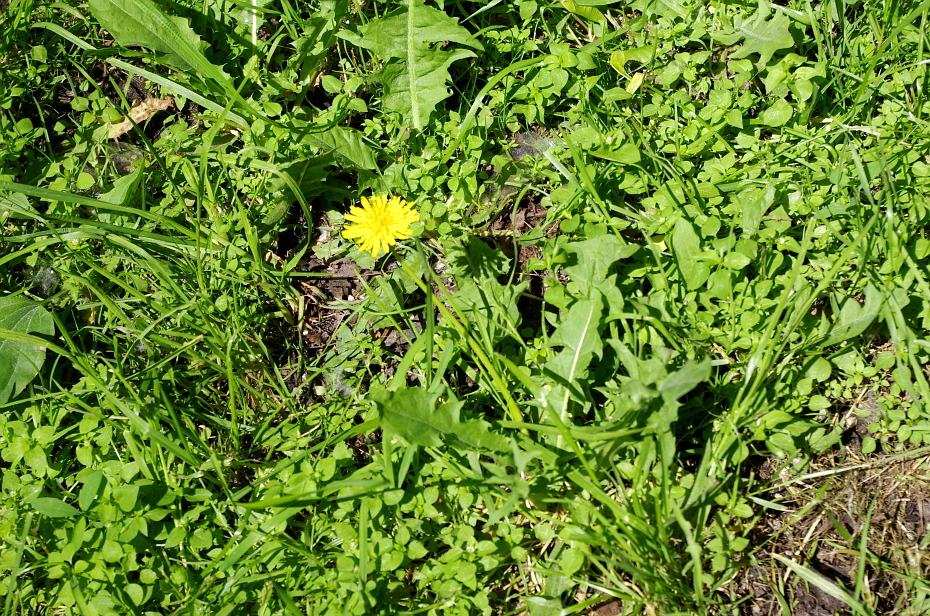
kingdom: Plantae
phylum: Tracheophyta
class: Magnoliopsida
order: Asterales
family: Asteraceae
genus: Taraxacum
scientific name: Taraxacum officinale
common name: Common dandelion
